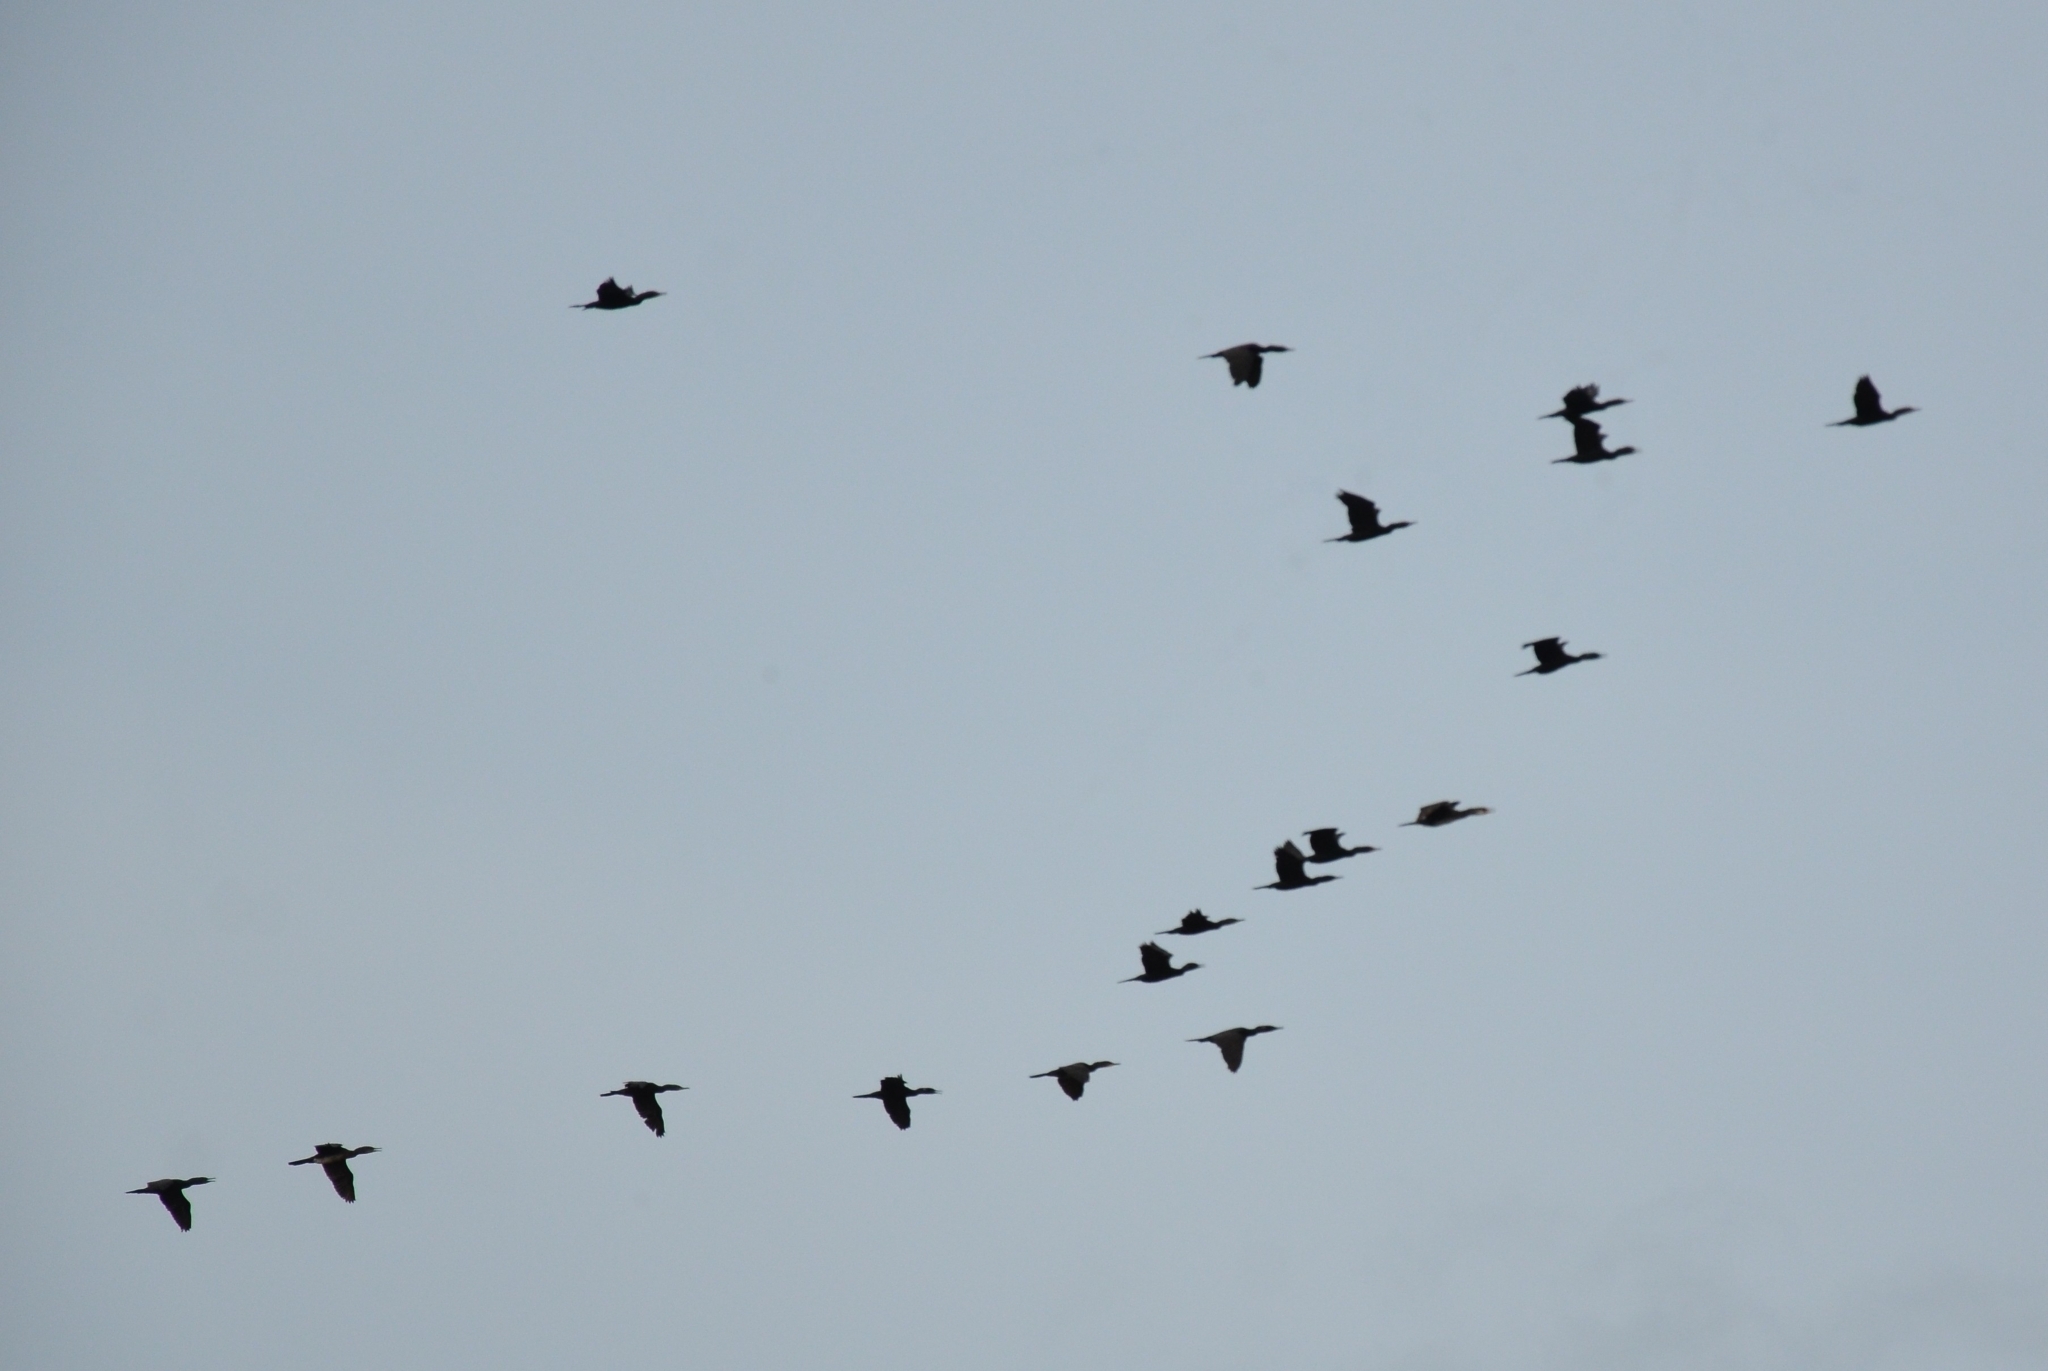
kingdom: Animalia
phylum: Chordata
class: Aves
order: Suliformes
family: Phalacrocoracidae
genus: Phalacrocorax
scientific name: Phalacrocorax fuscicollis
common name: Indian cormorant
